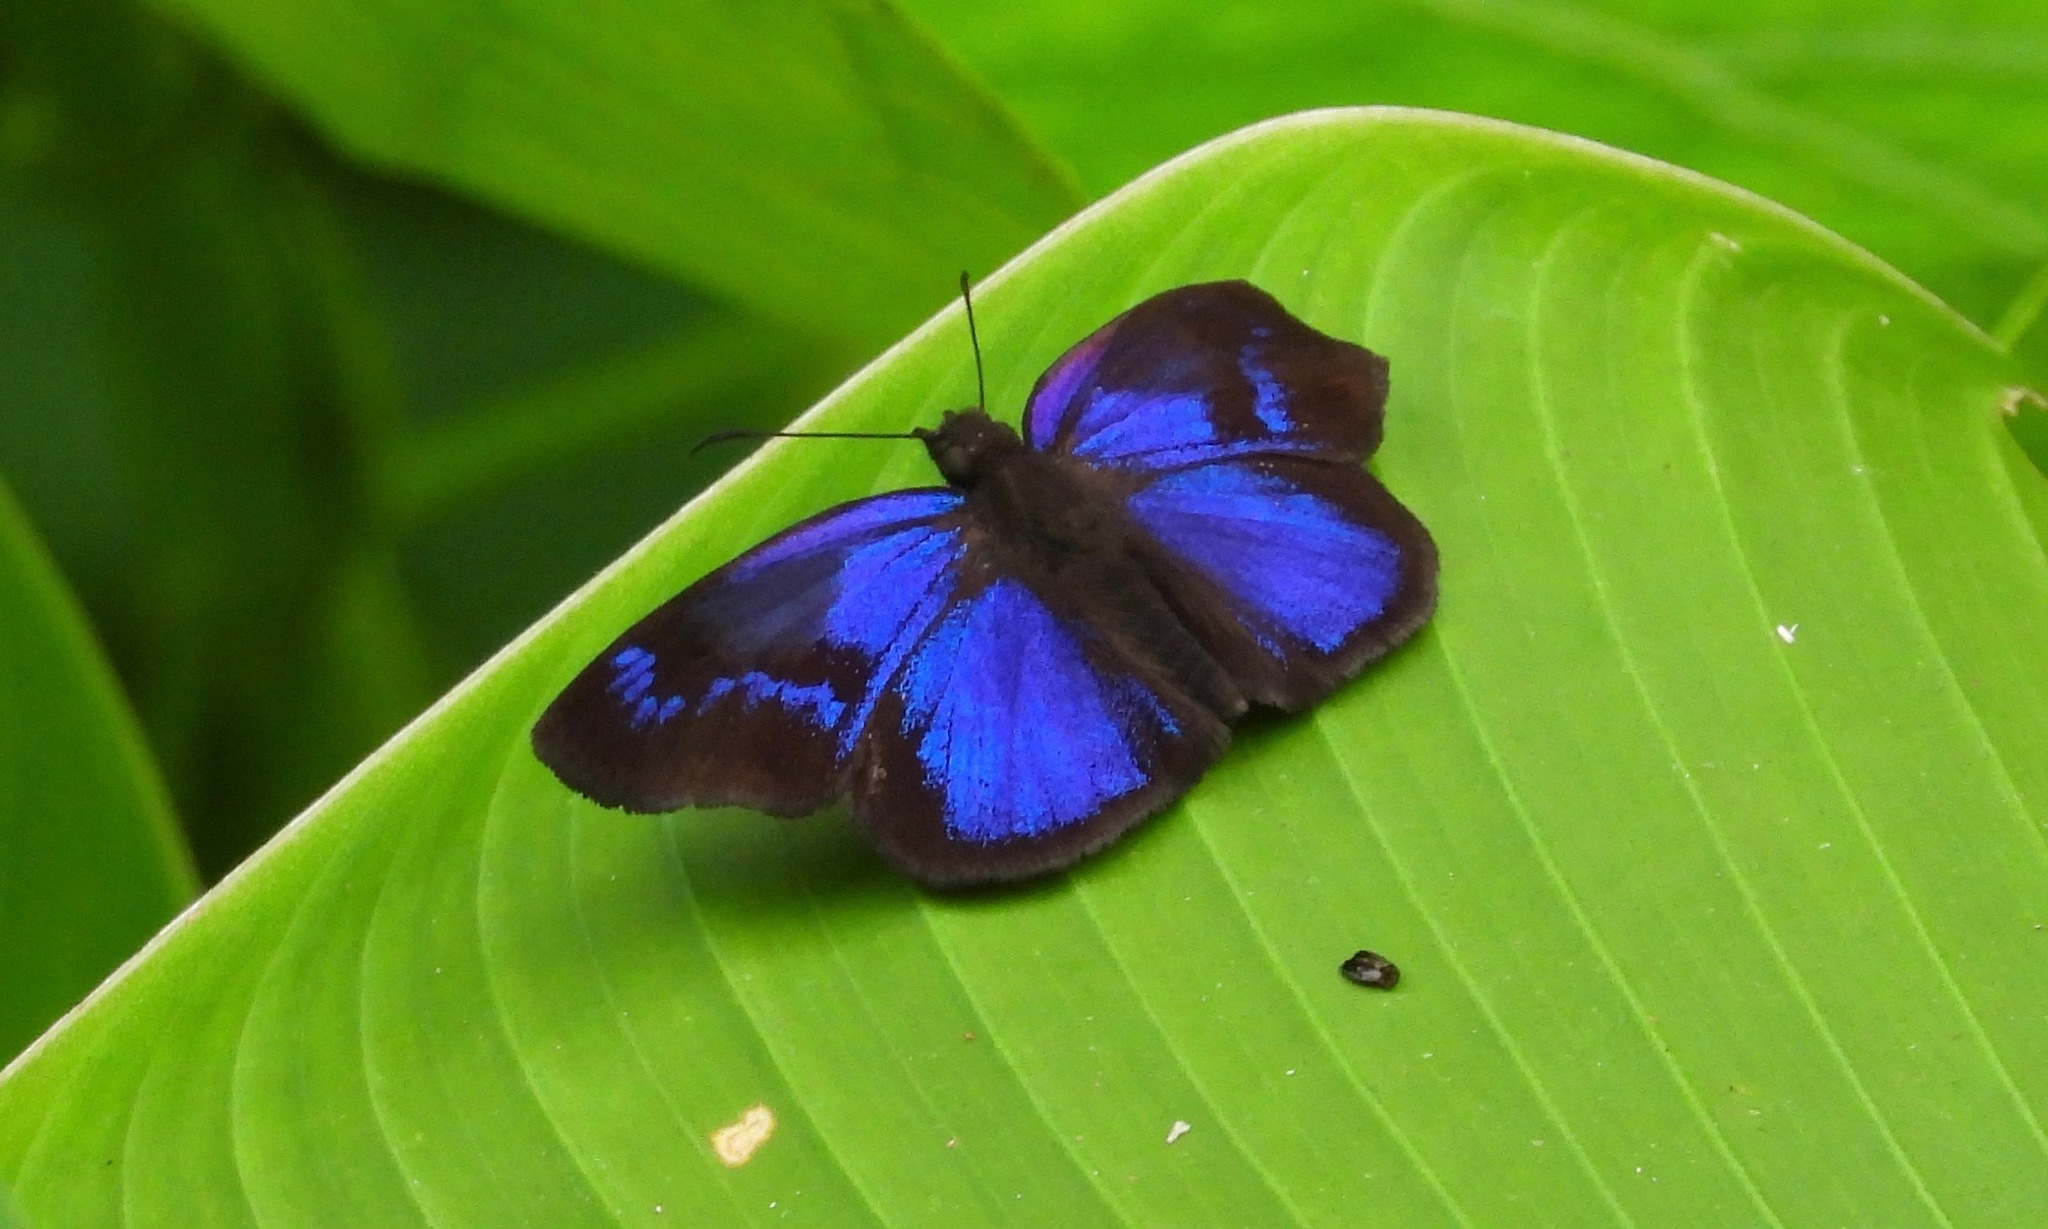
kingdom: Animalia
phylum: Arthropoda
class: Insecta
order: Lepidoptera
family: Hesperiidae
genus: Paches
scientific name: Paches loxus
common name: Glorious blue-skipper
